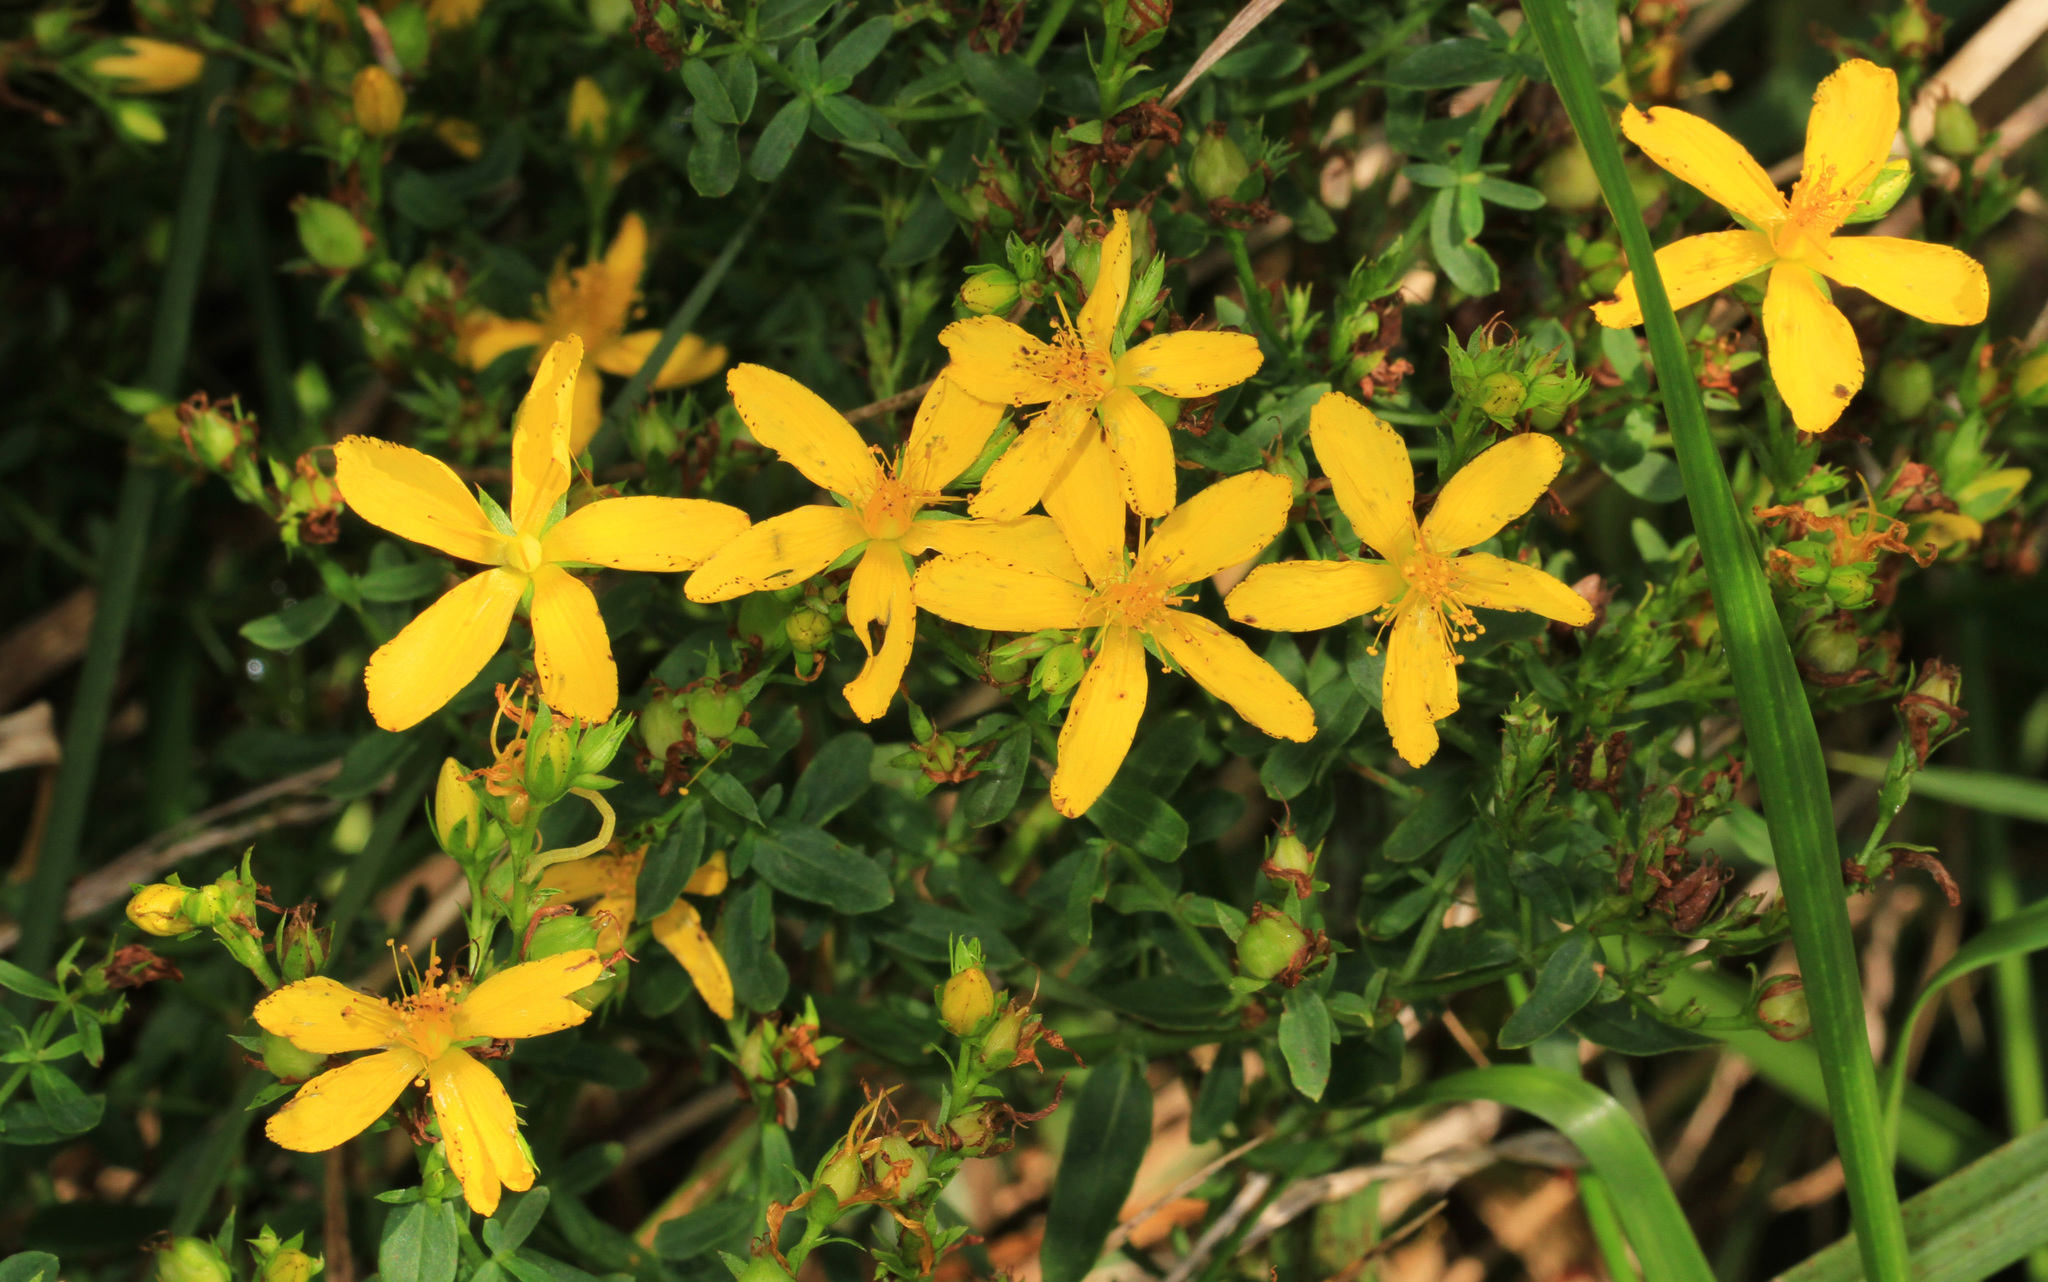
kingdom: Plantae
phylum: Tracheophyta
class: Magnoliopsida
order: Malpighiales
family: Hypericaceae
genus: Hypericum
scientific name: Hypericum perforatum
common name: Common st. johnswort
